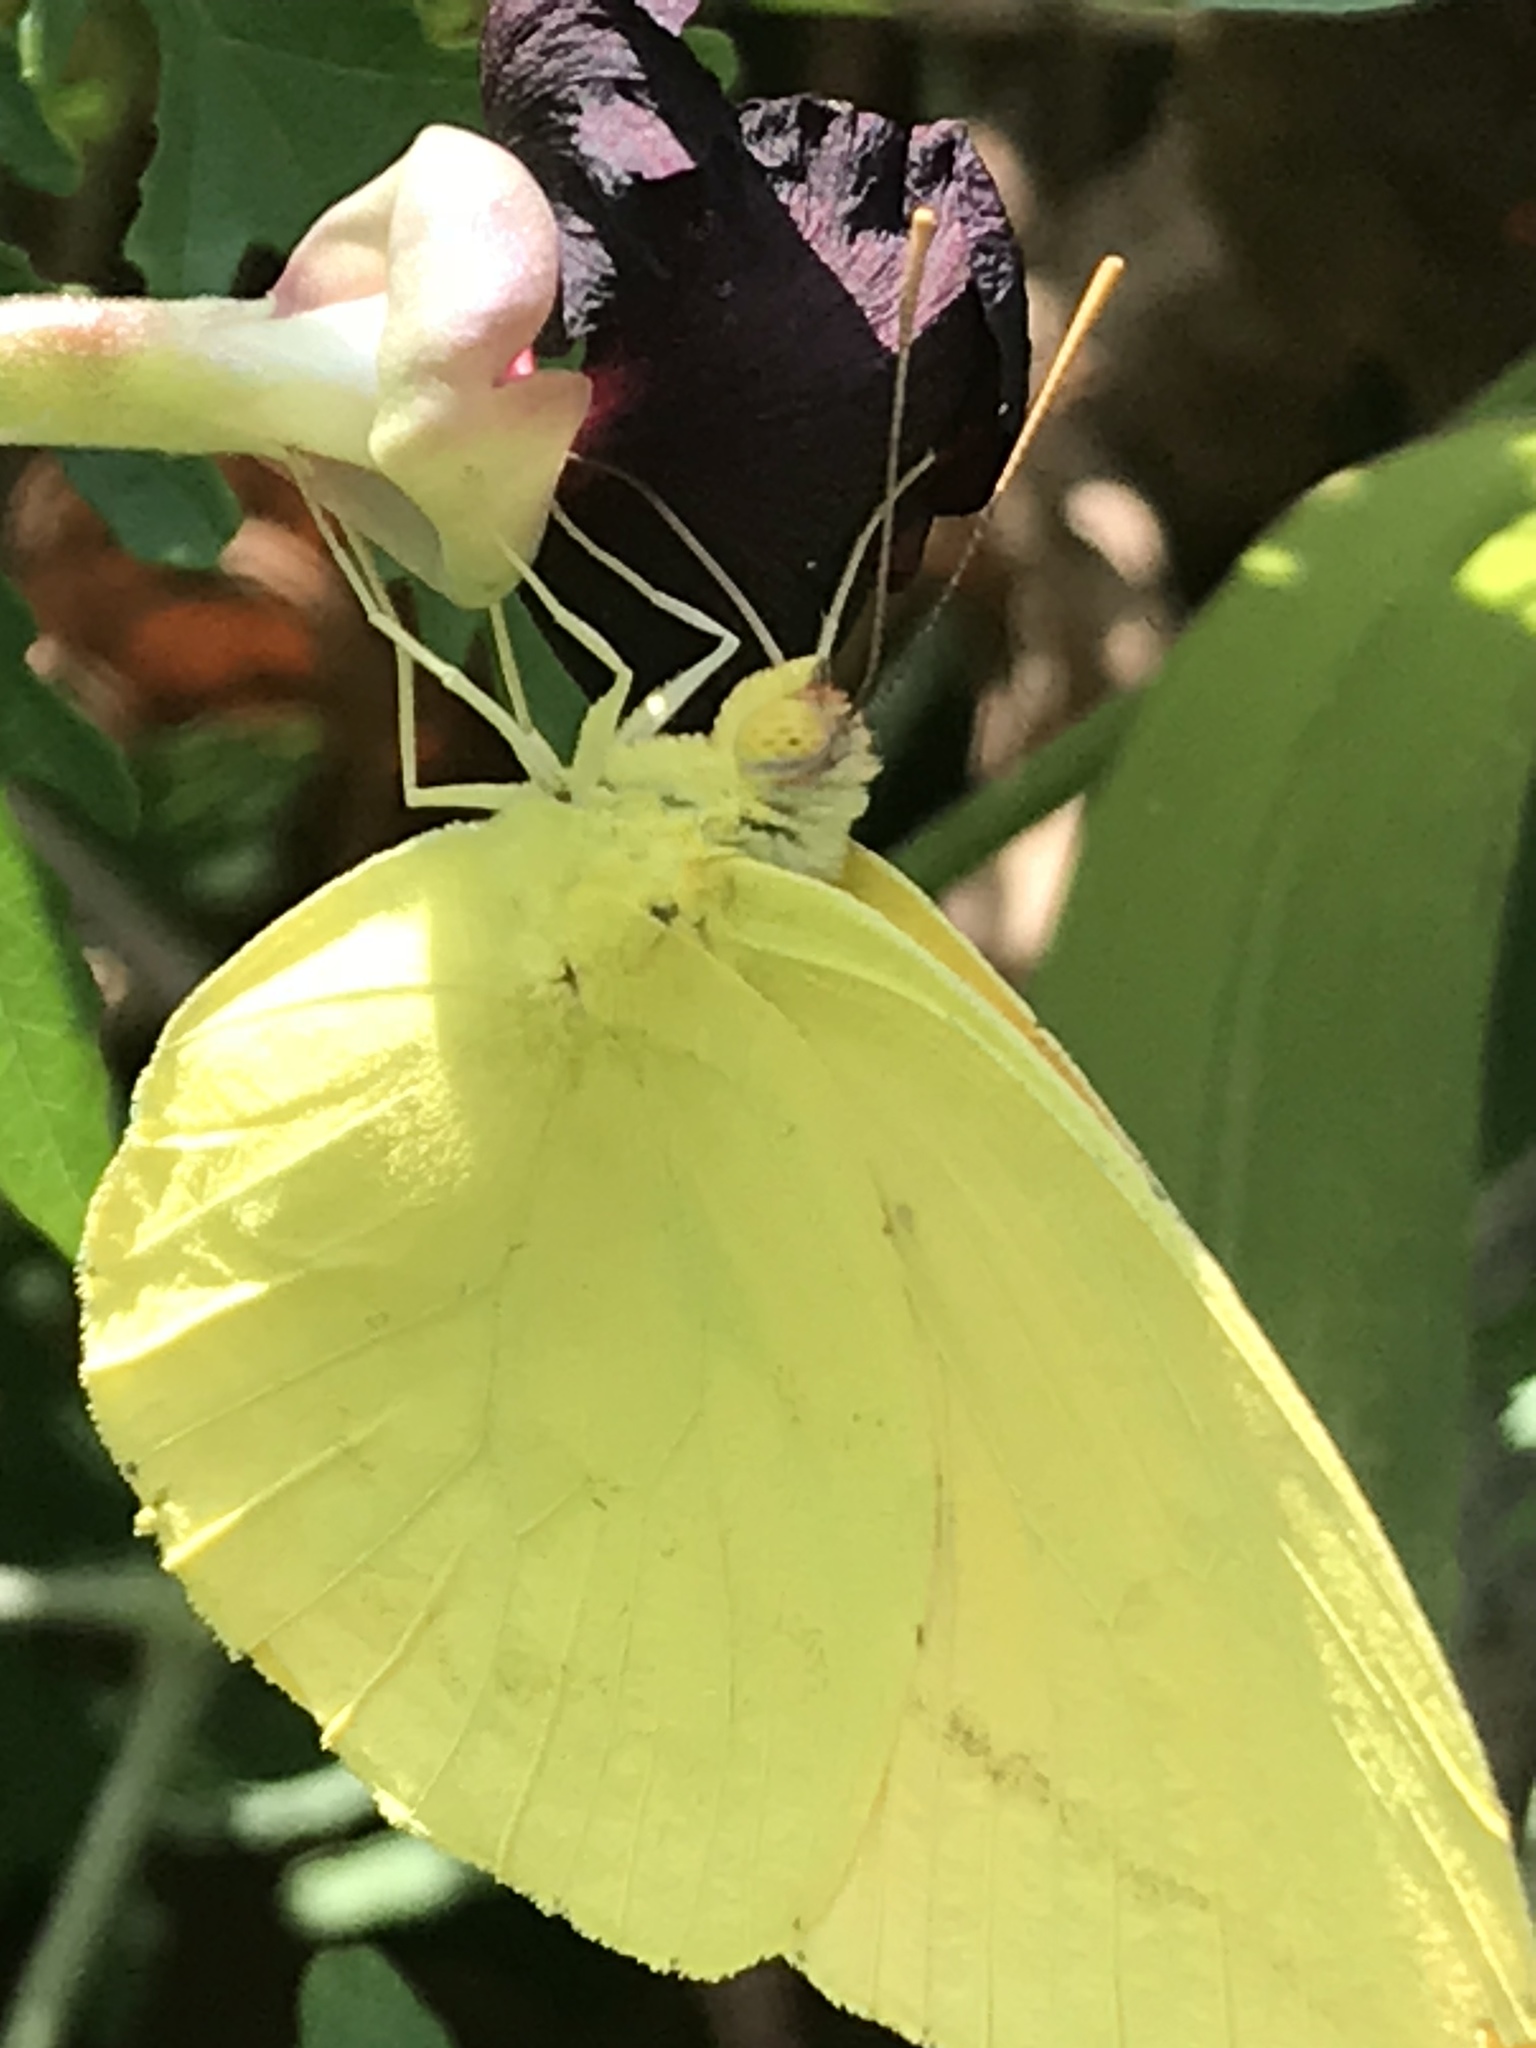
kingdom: Animalia
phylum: Arthropoda
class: Insecta
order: Lepidoptera
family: Pieridae
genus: Phoebis
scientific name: Phoebis agarithe
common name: Large orange sulphur
